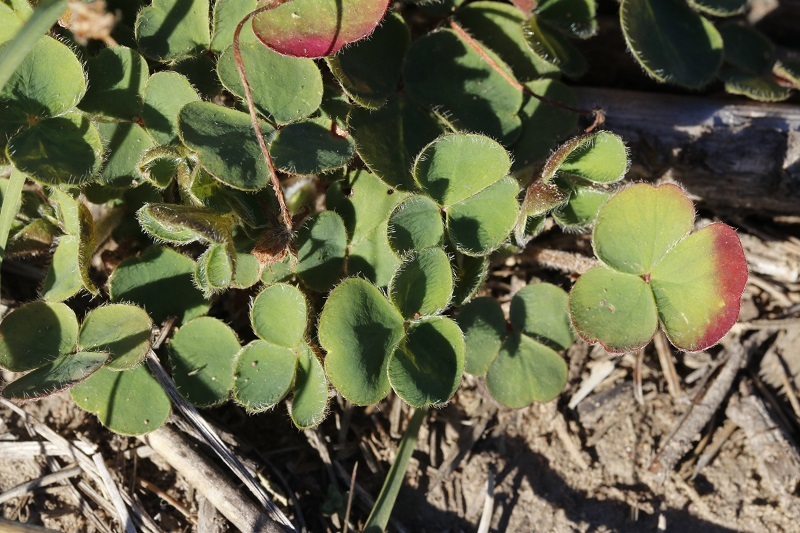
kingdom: Plantae
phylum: Tracheophyta
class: Magnoliopsida
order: Oxalidales
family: Oxalidaceae
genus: Oxalis
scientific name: Oxalis imbricata
